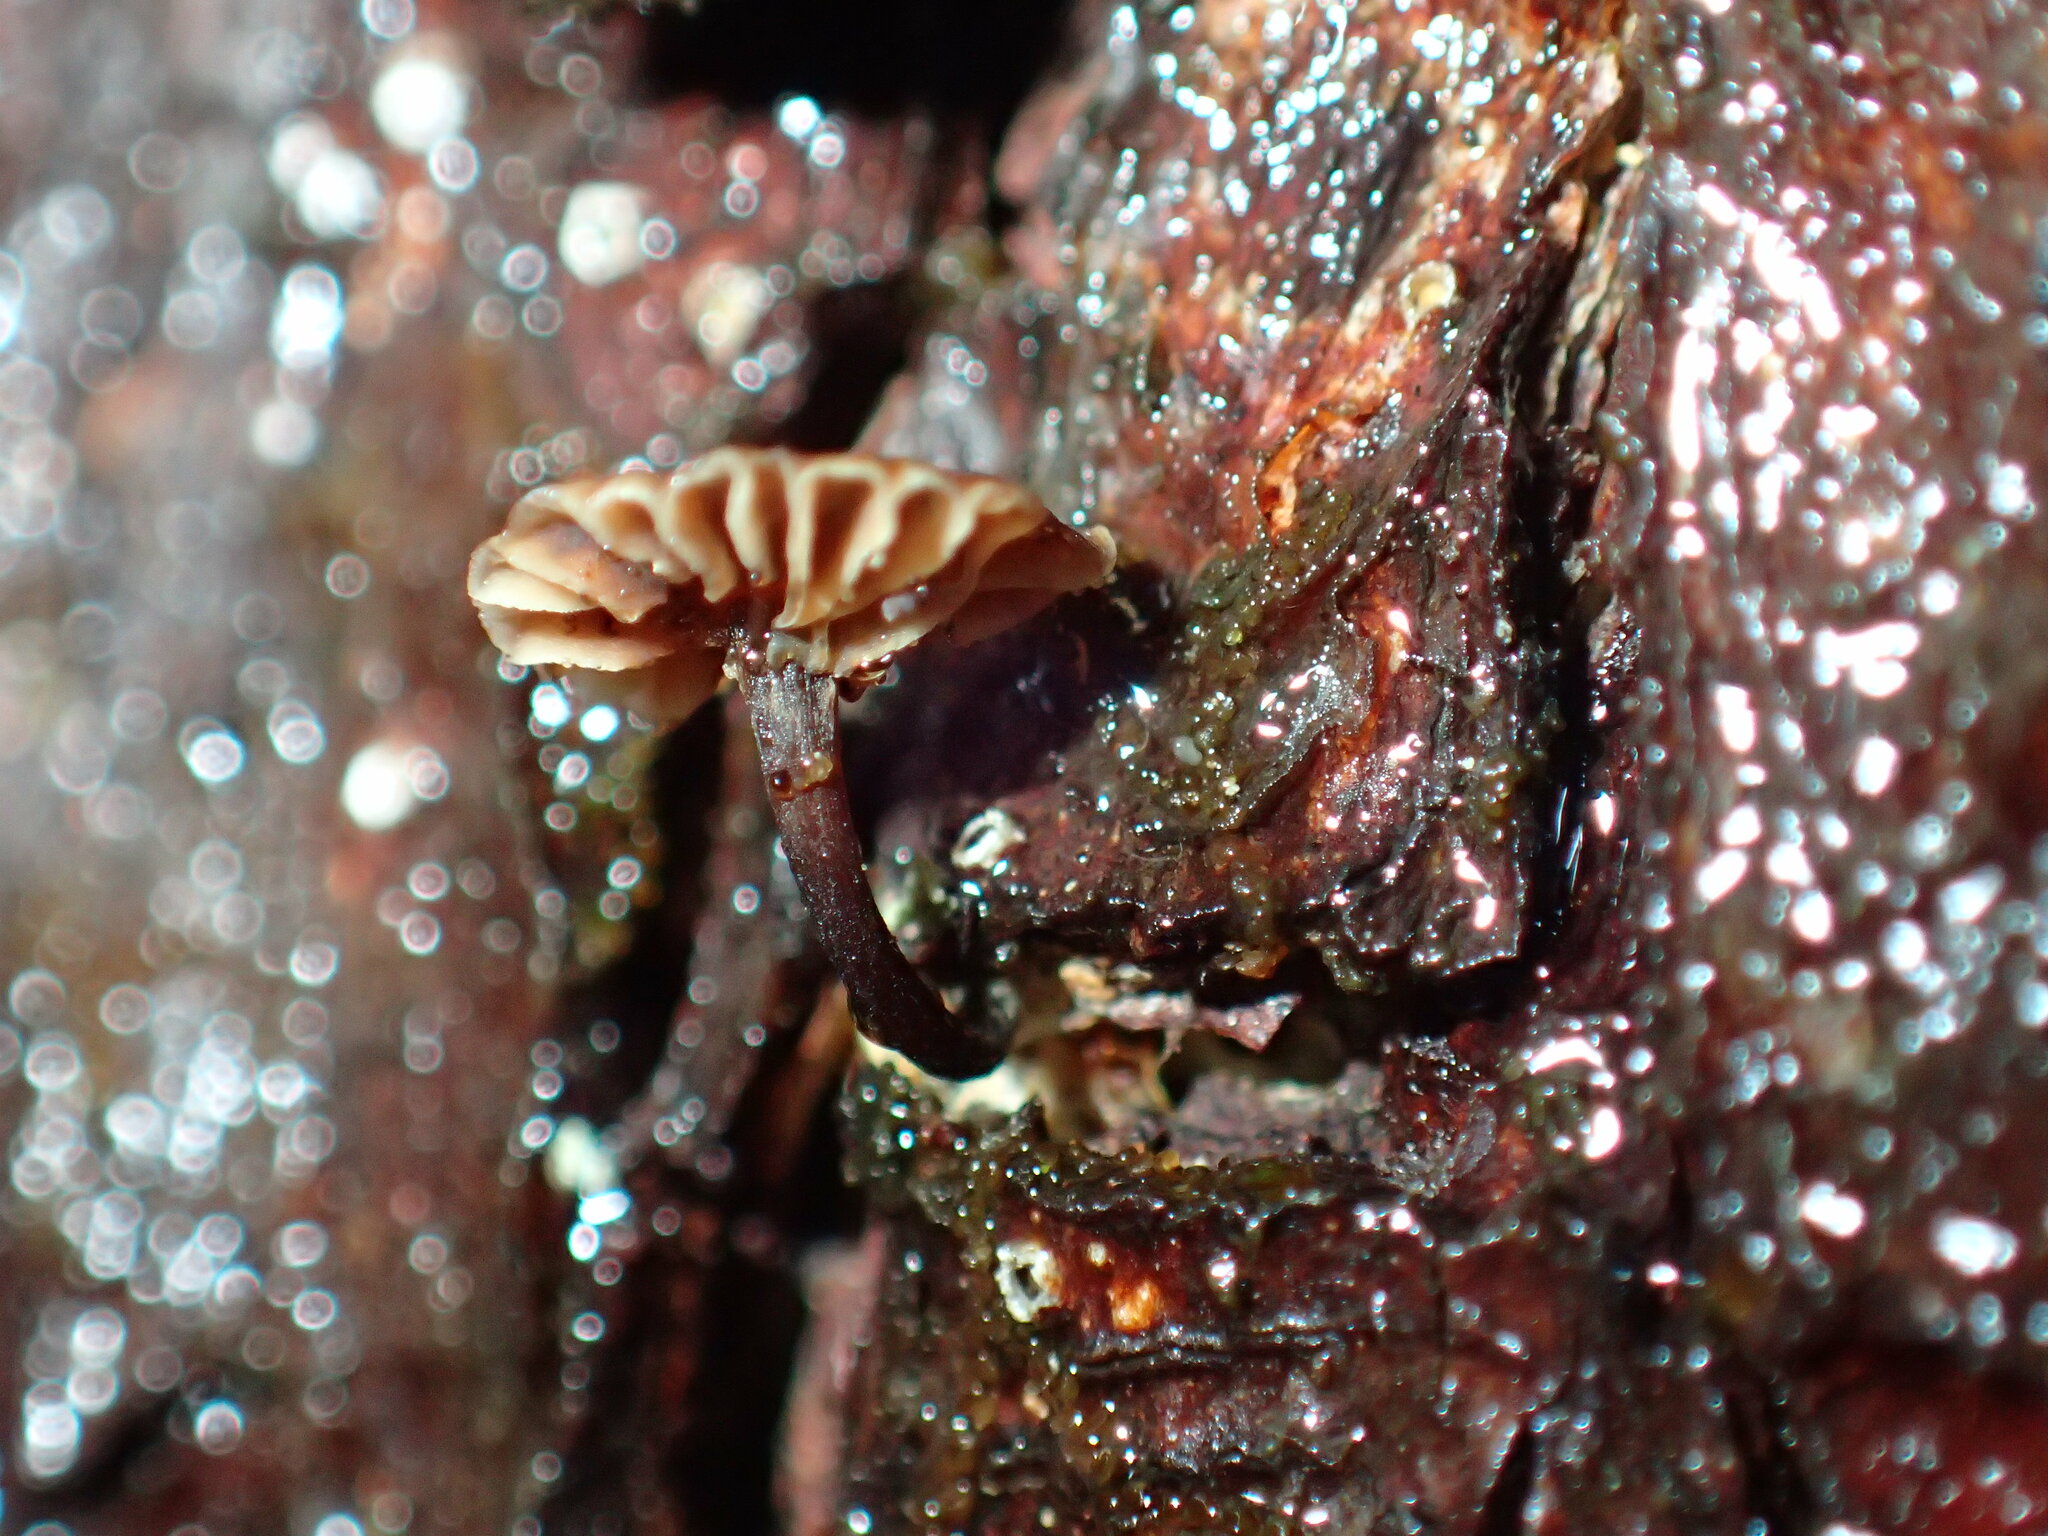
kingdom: Fungi
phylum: Basidiomycota
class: Agaricomycetes
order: Agaricales
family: Omphalotaceae
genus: Micromphale
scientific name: Micromphale arbuticola
